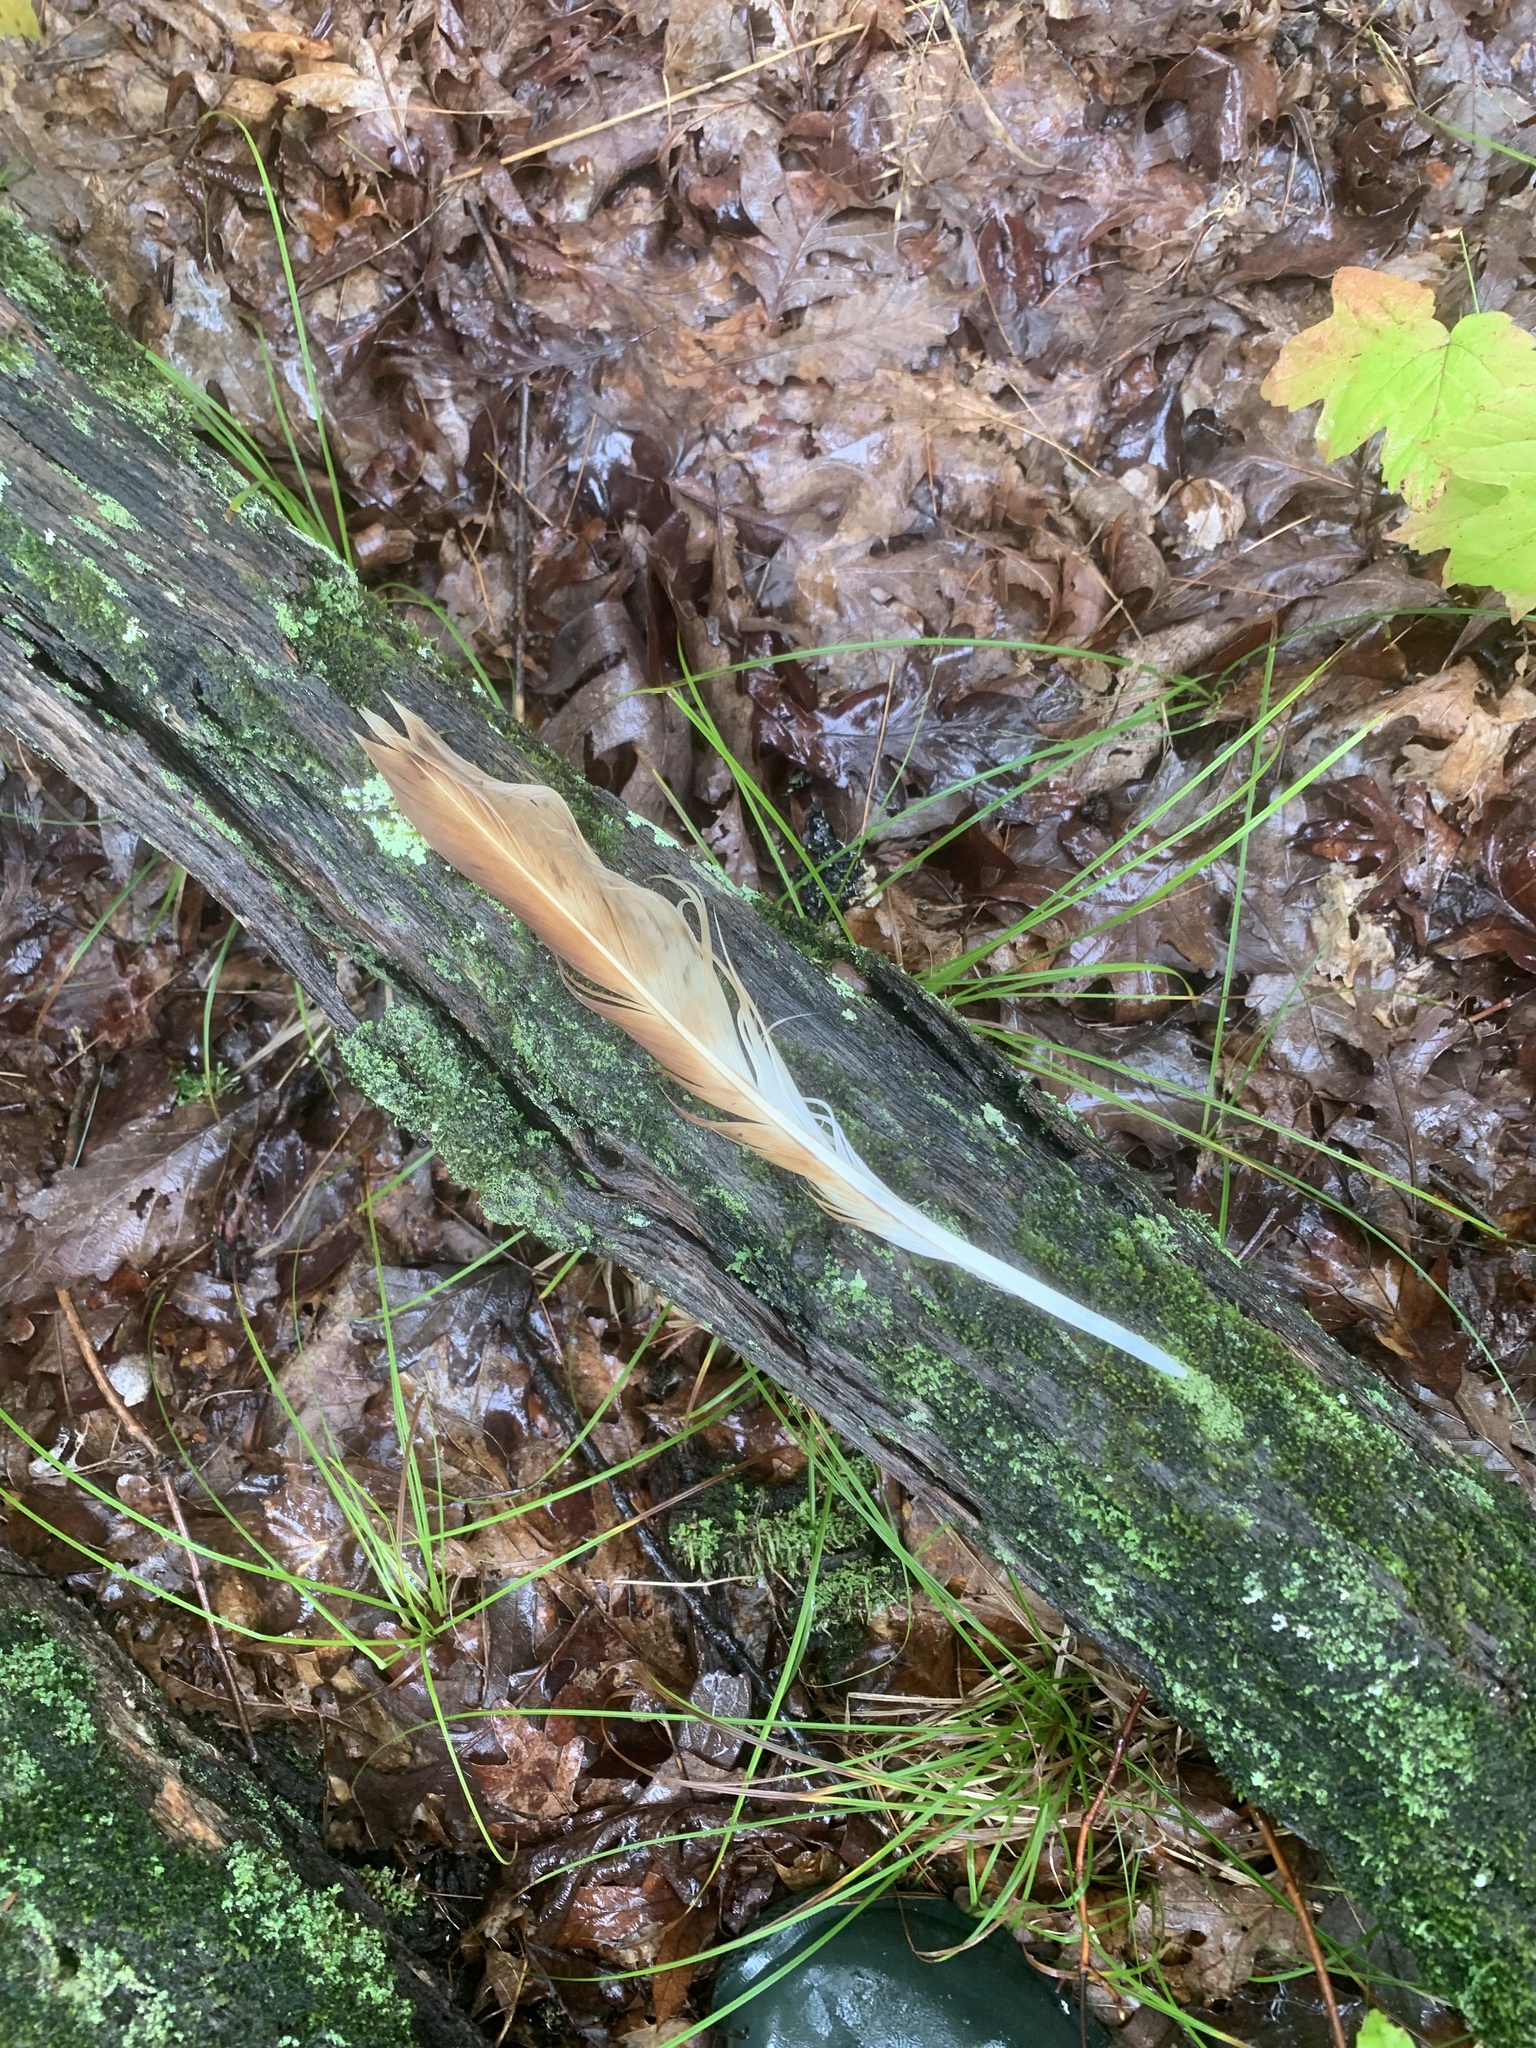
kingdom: Animalia
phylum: Chordata
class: Aves
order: Accipitriformes
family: Accipitridae
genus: Buteo
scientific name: Buteo jamaicensis
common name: Red-tailed hawk
